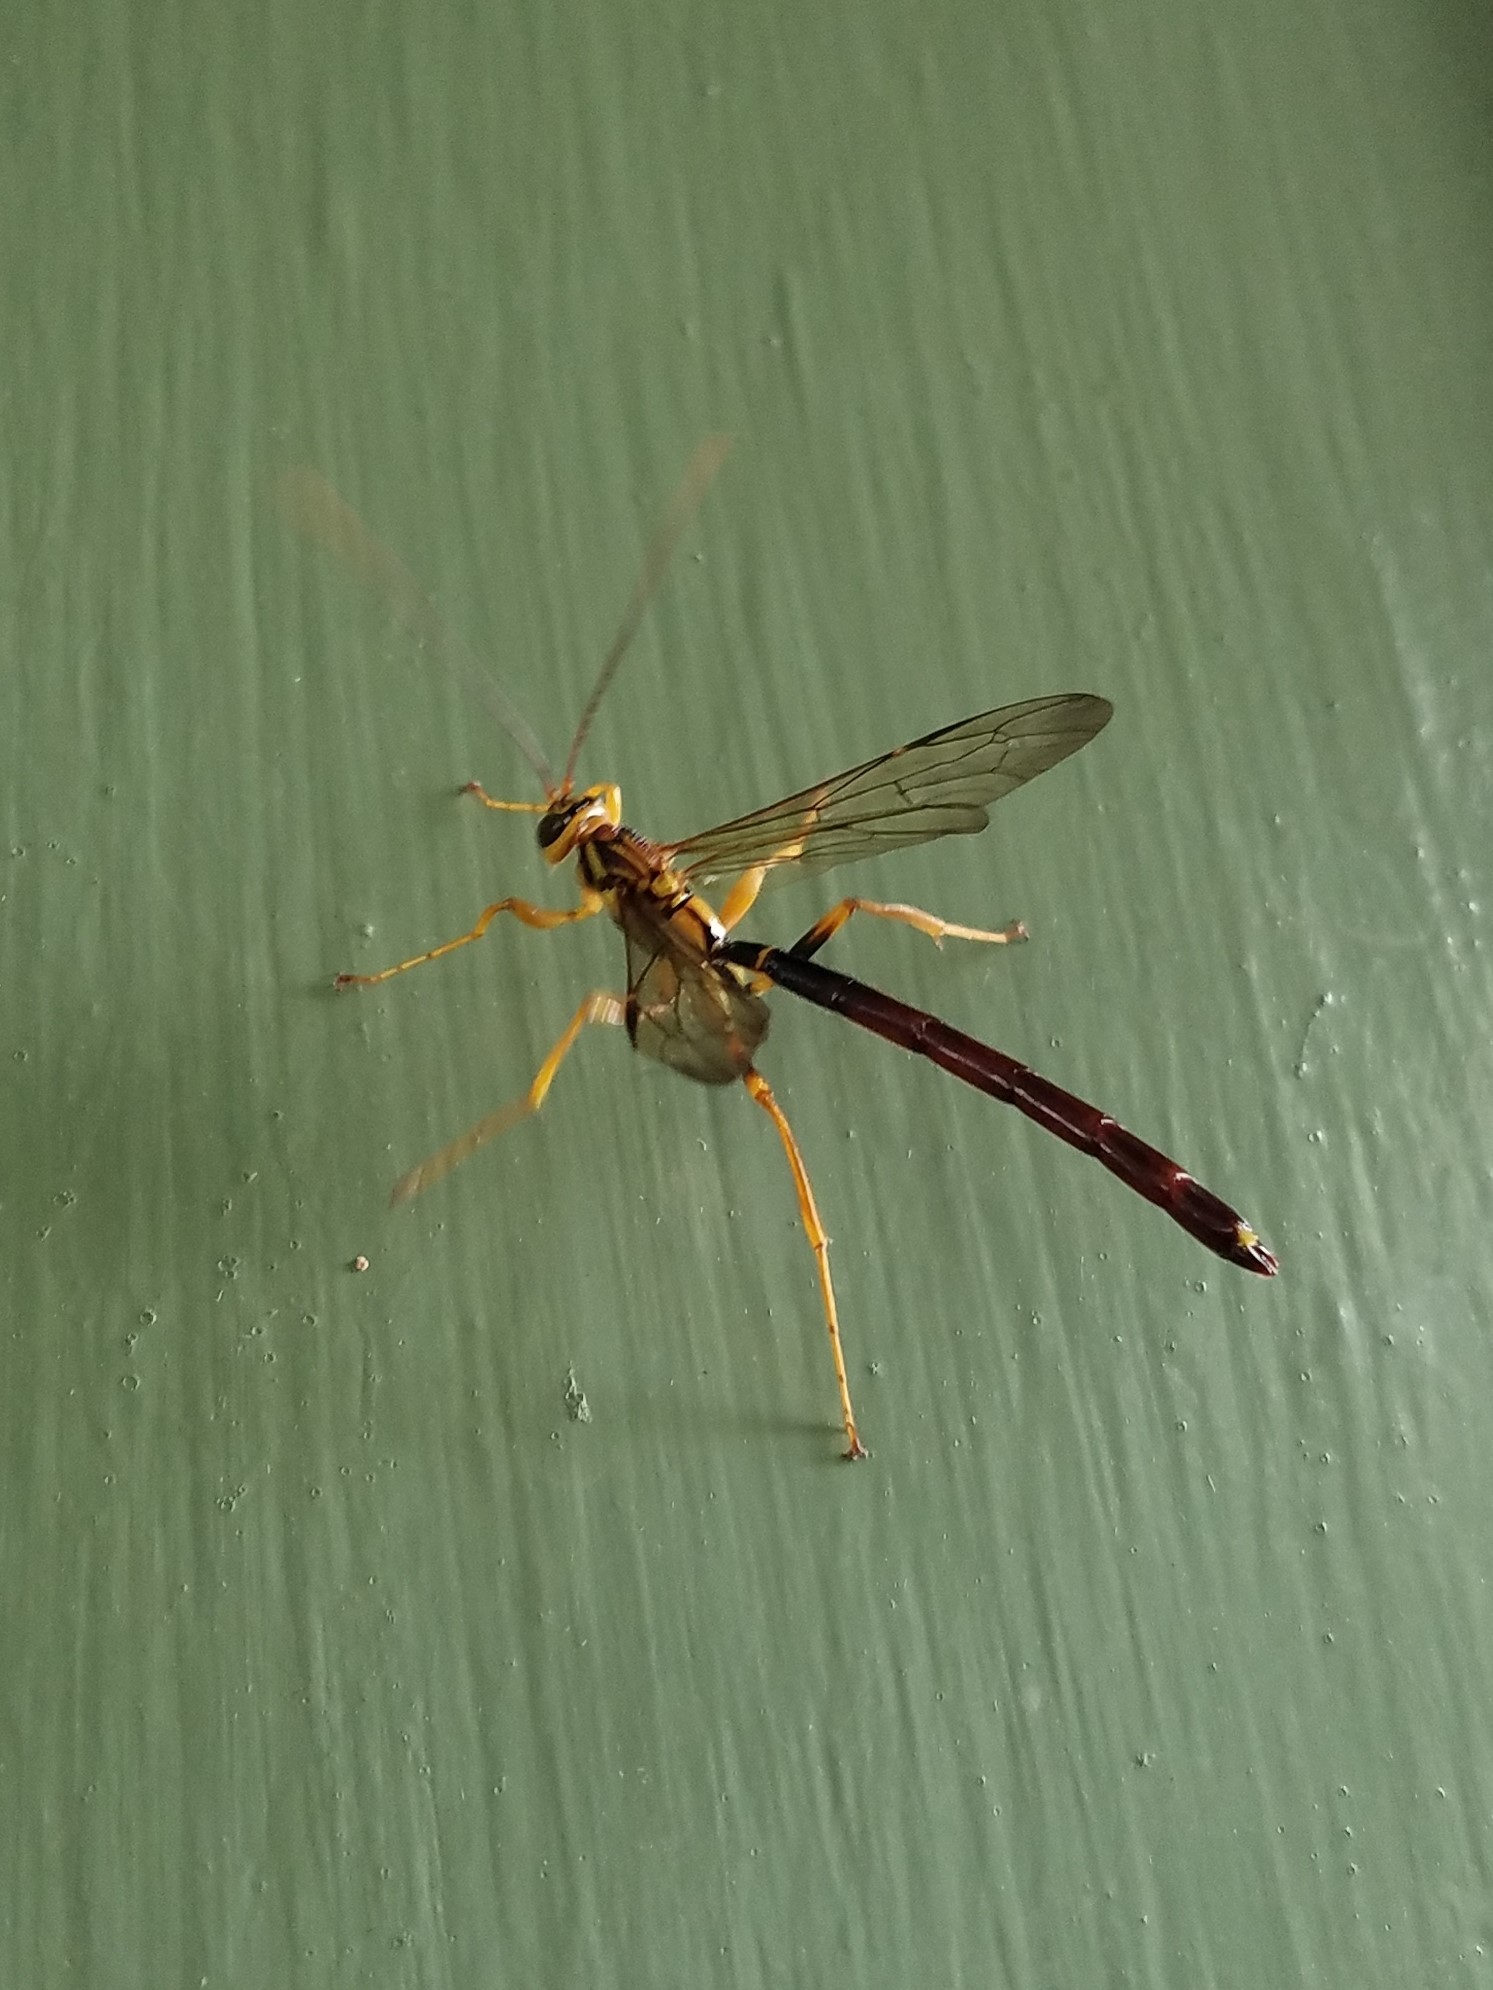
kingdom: Animalia
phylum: Arthropoda
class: Insecta
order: Hymenoptera
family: Ichneumonidae
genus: Megarhyssa
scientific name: Megarhyssa atrata
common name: Black giant ichneumonid wasp
